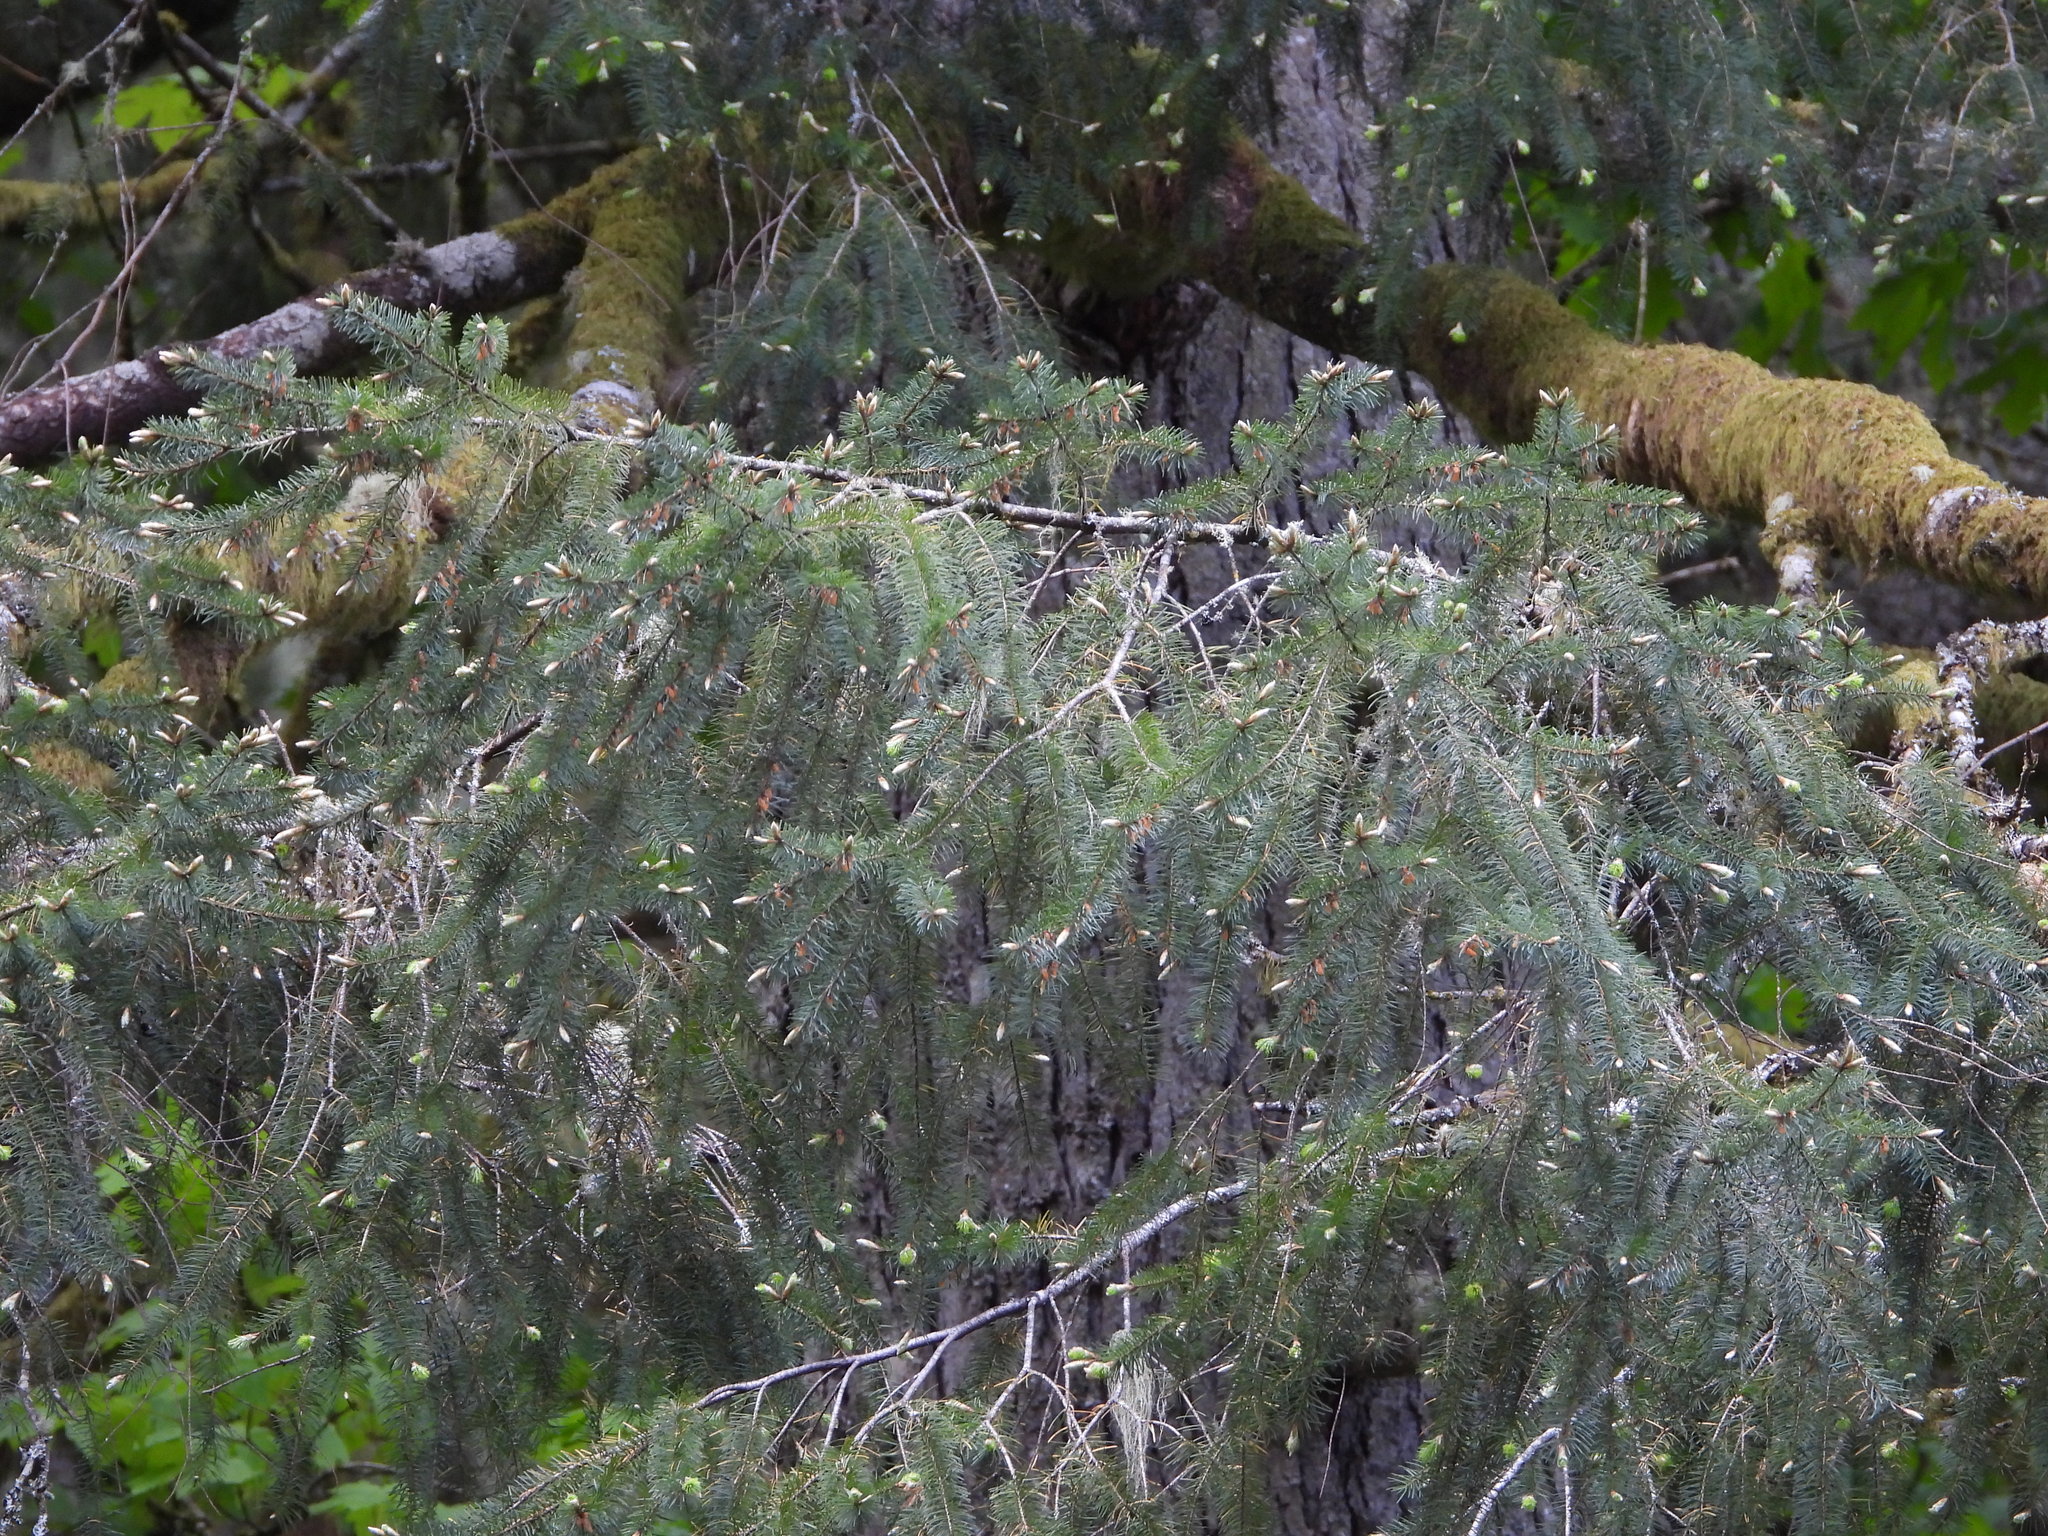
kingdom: Plantae
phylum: Tracheophyta
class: Pinopsida
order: Pinales
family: Pinaceae
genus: Pseudotsuga
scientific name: Pseudotsuga menziesii
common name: Douglas fir
